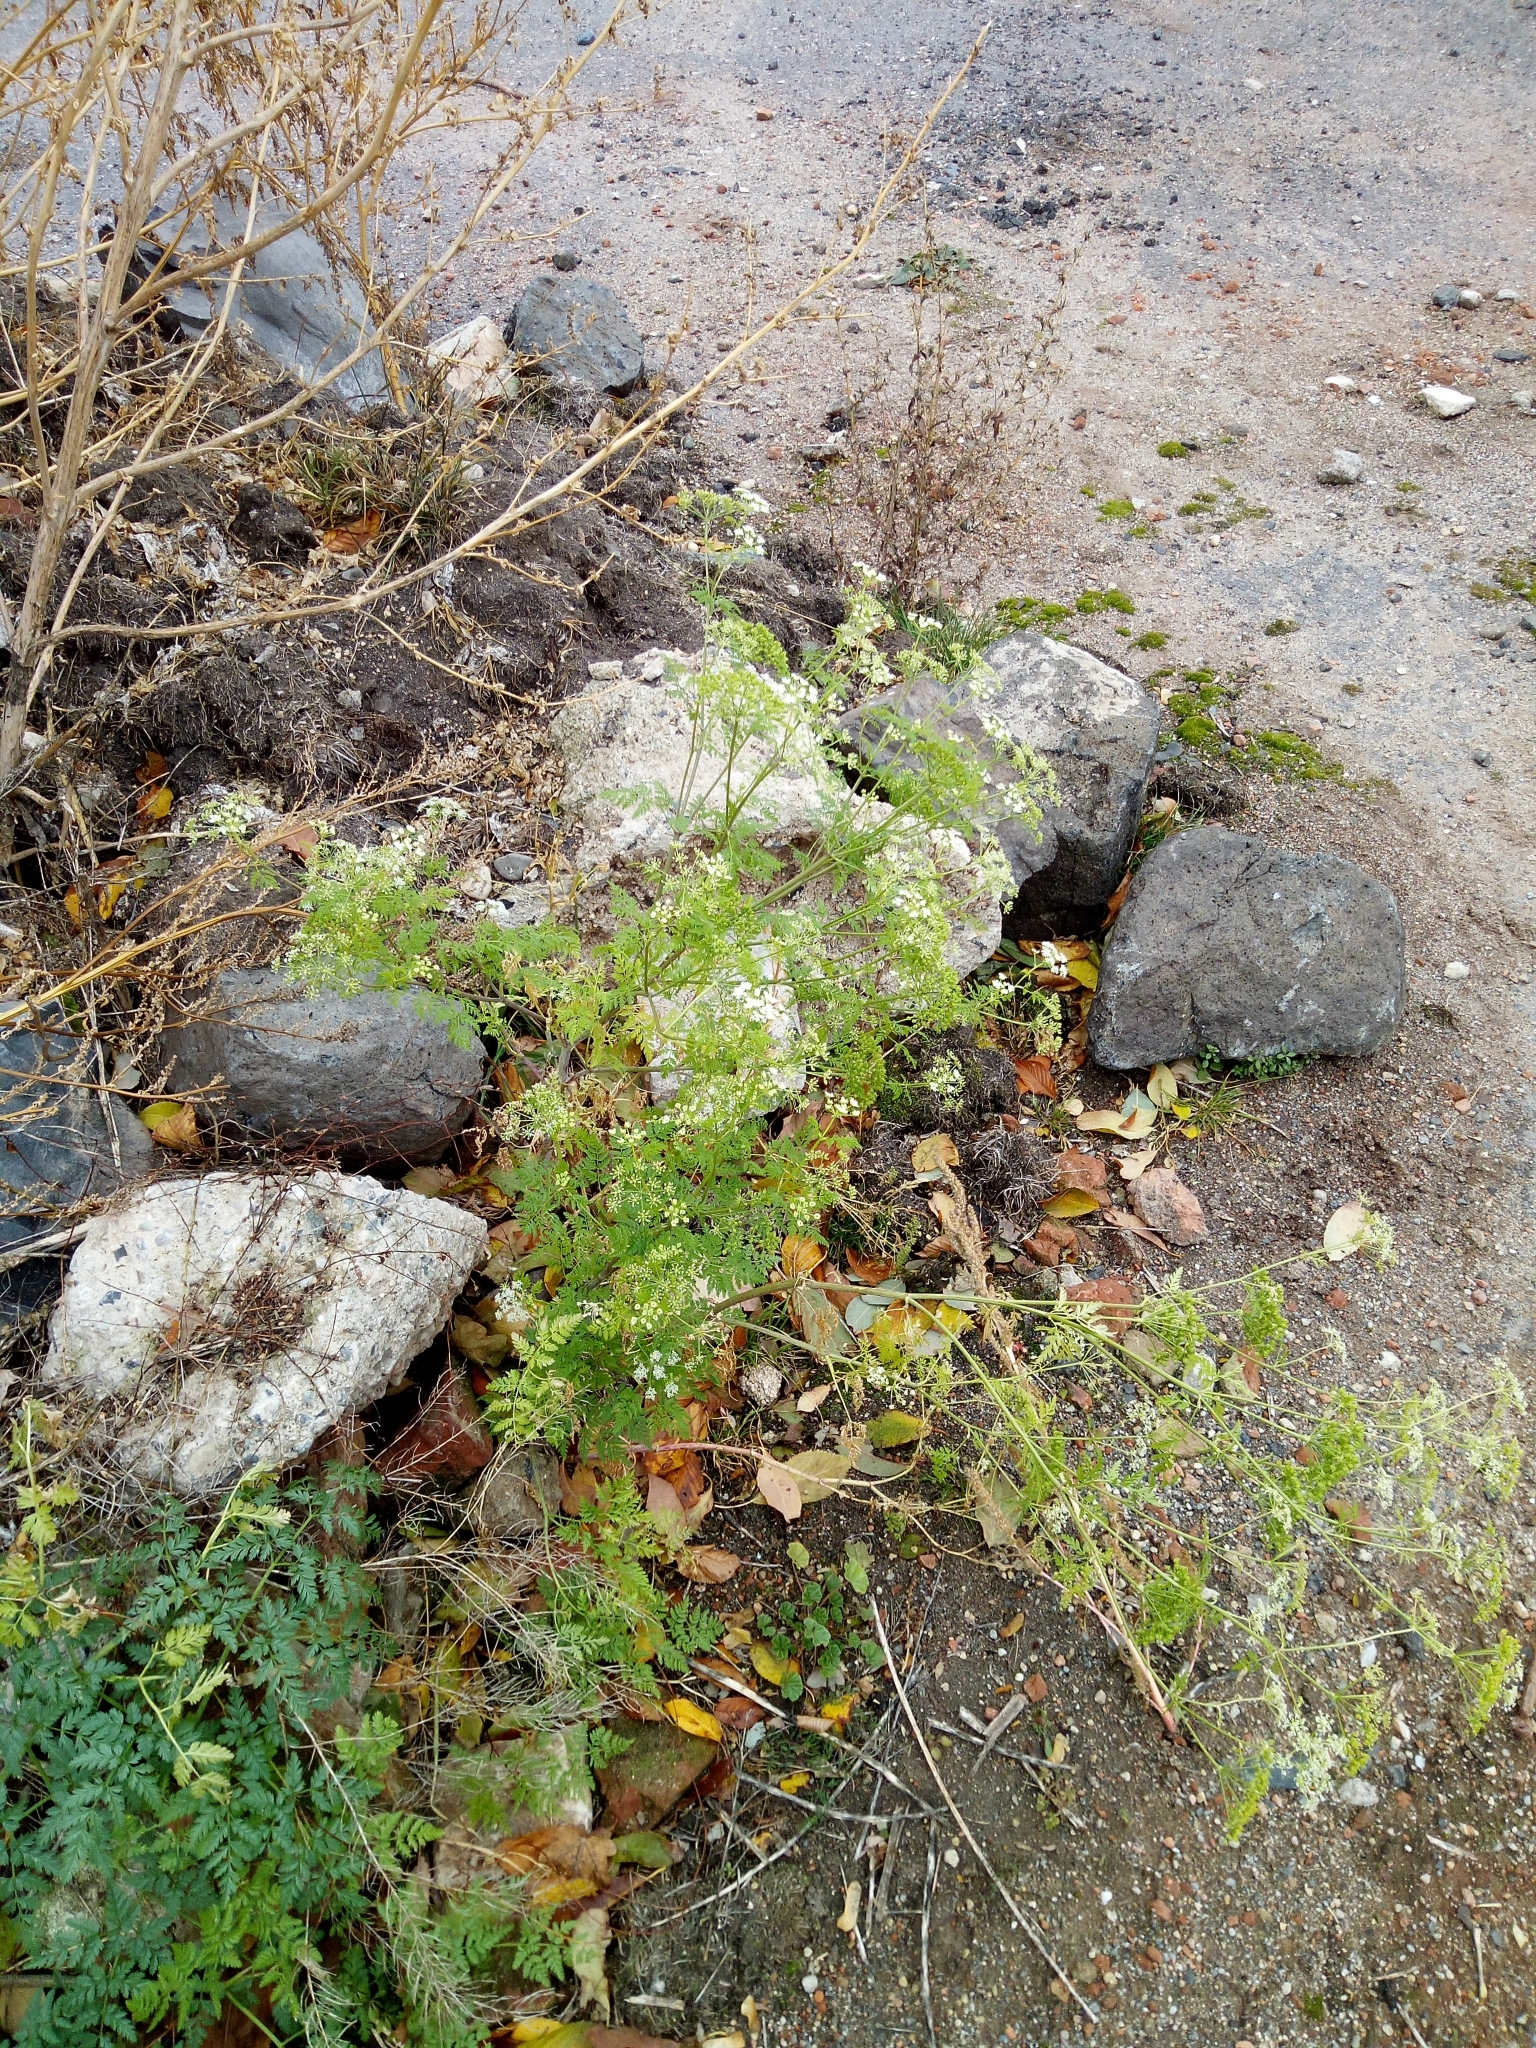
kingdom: Plantae
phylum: Tracheophyta
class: Magnoliopsida
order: Apiales
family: Apiaceae
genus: Conium
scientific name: Conium maculatum
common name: Hemlock
